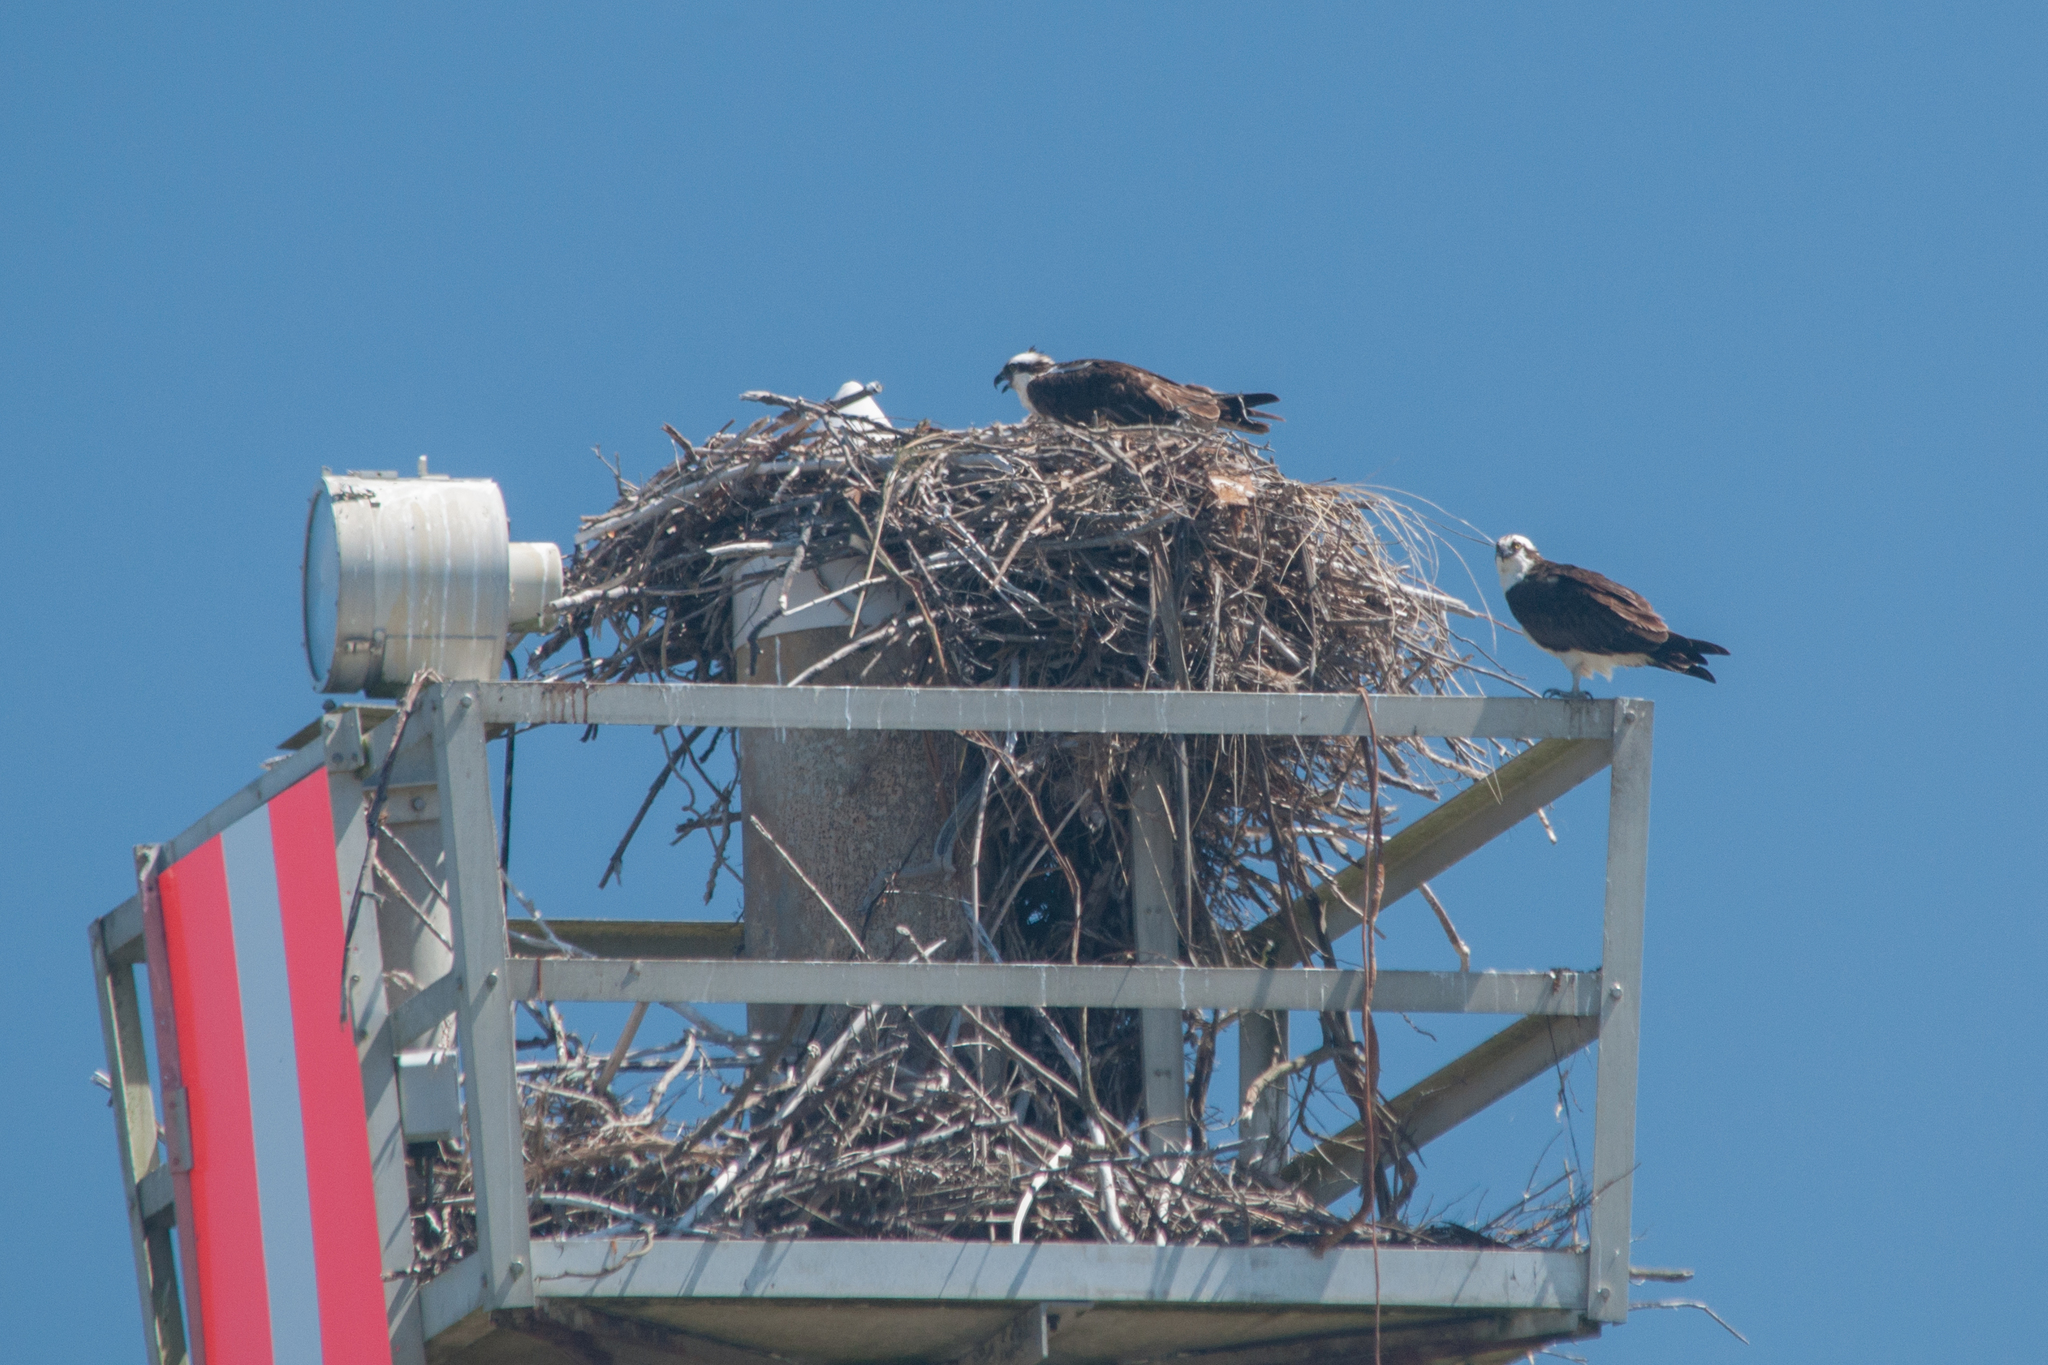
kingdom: Animalia
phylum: Chordata
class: Aves
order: Accipitriformes
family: Pandionidae
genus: Pandion
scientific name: Pandion haliaetus
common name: Osprey
